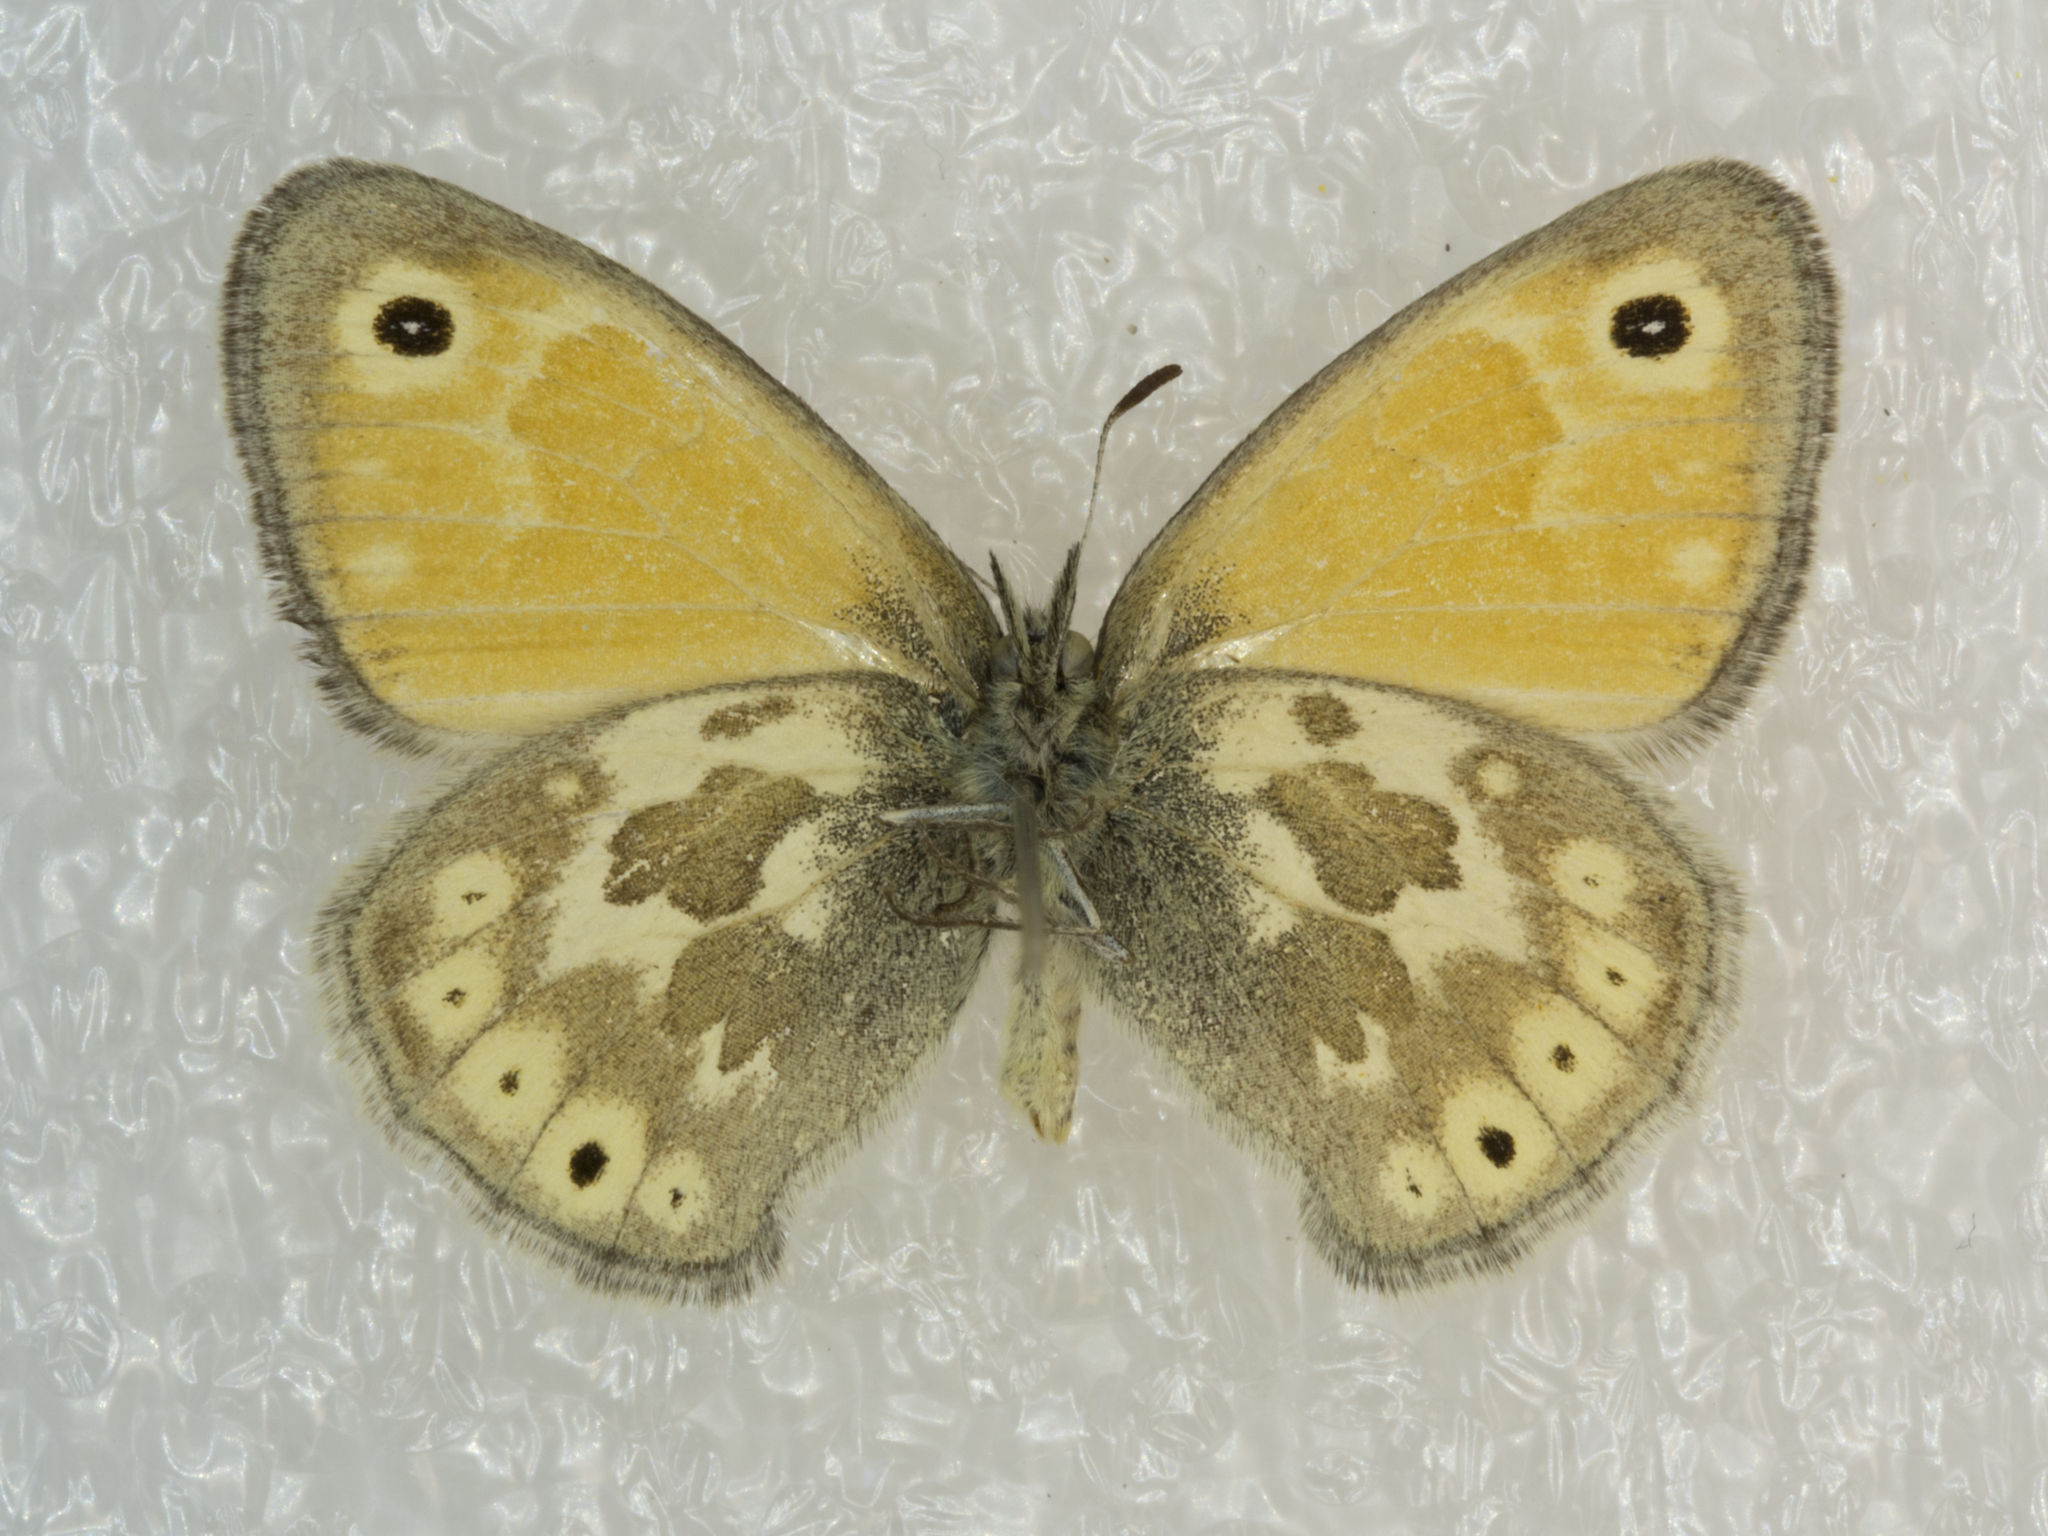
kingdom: Animalia
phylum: Arthropoda
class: Insecta
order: Lepidoptera
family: Nymphalidae
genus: Coenonympha
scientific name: Coenonympha california
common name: Common ringlet
